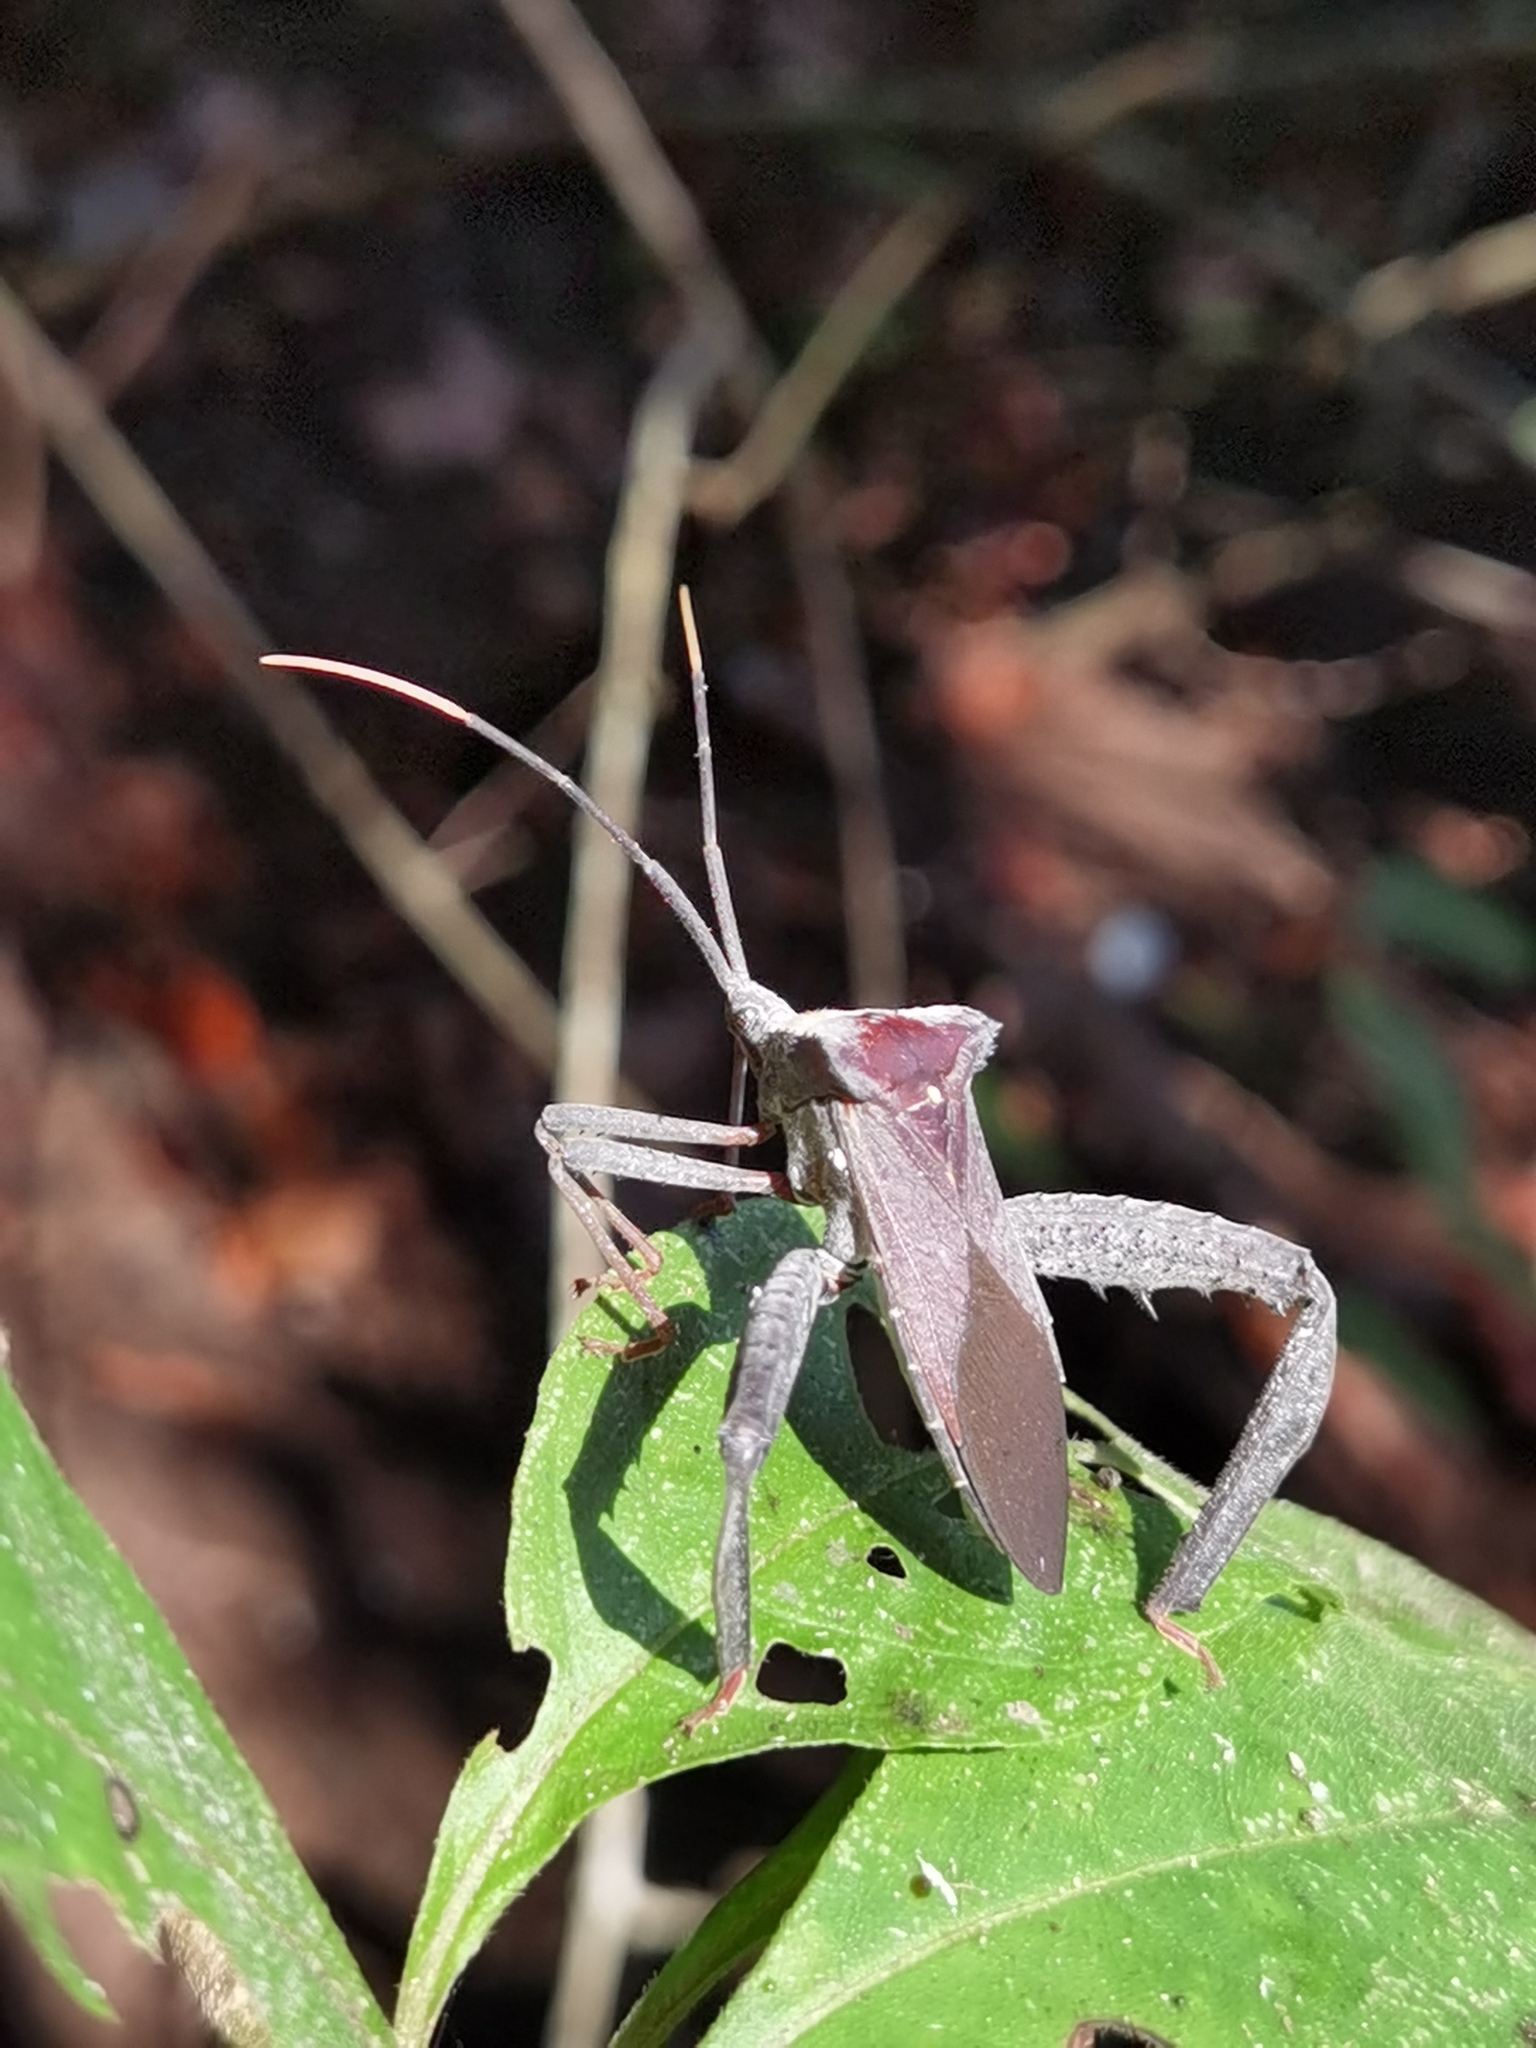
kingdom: Animalia
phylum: Arthropoda
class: Insecta
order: Hemiptera
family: Coreidae
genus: Acanthocephala
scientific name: Acanthocephala alata
